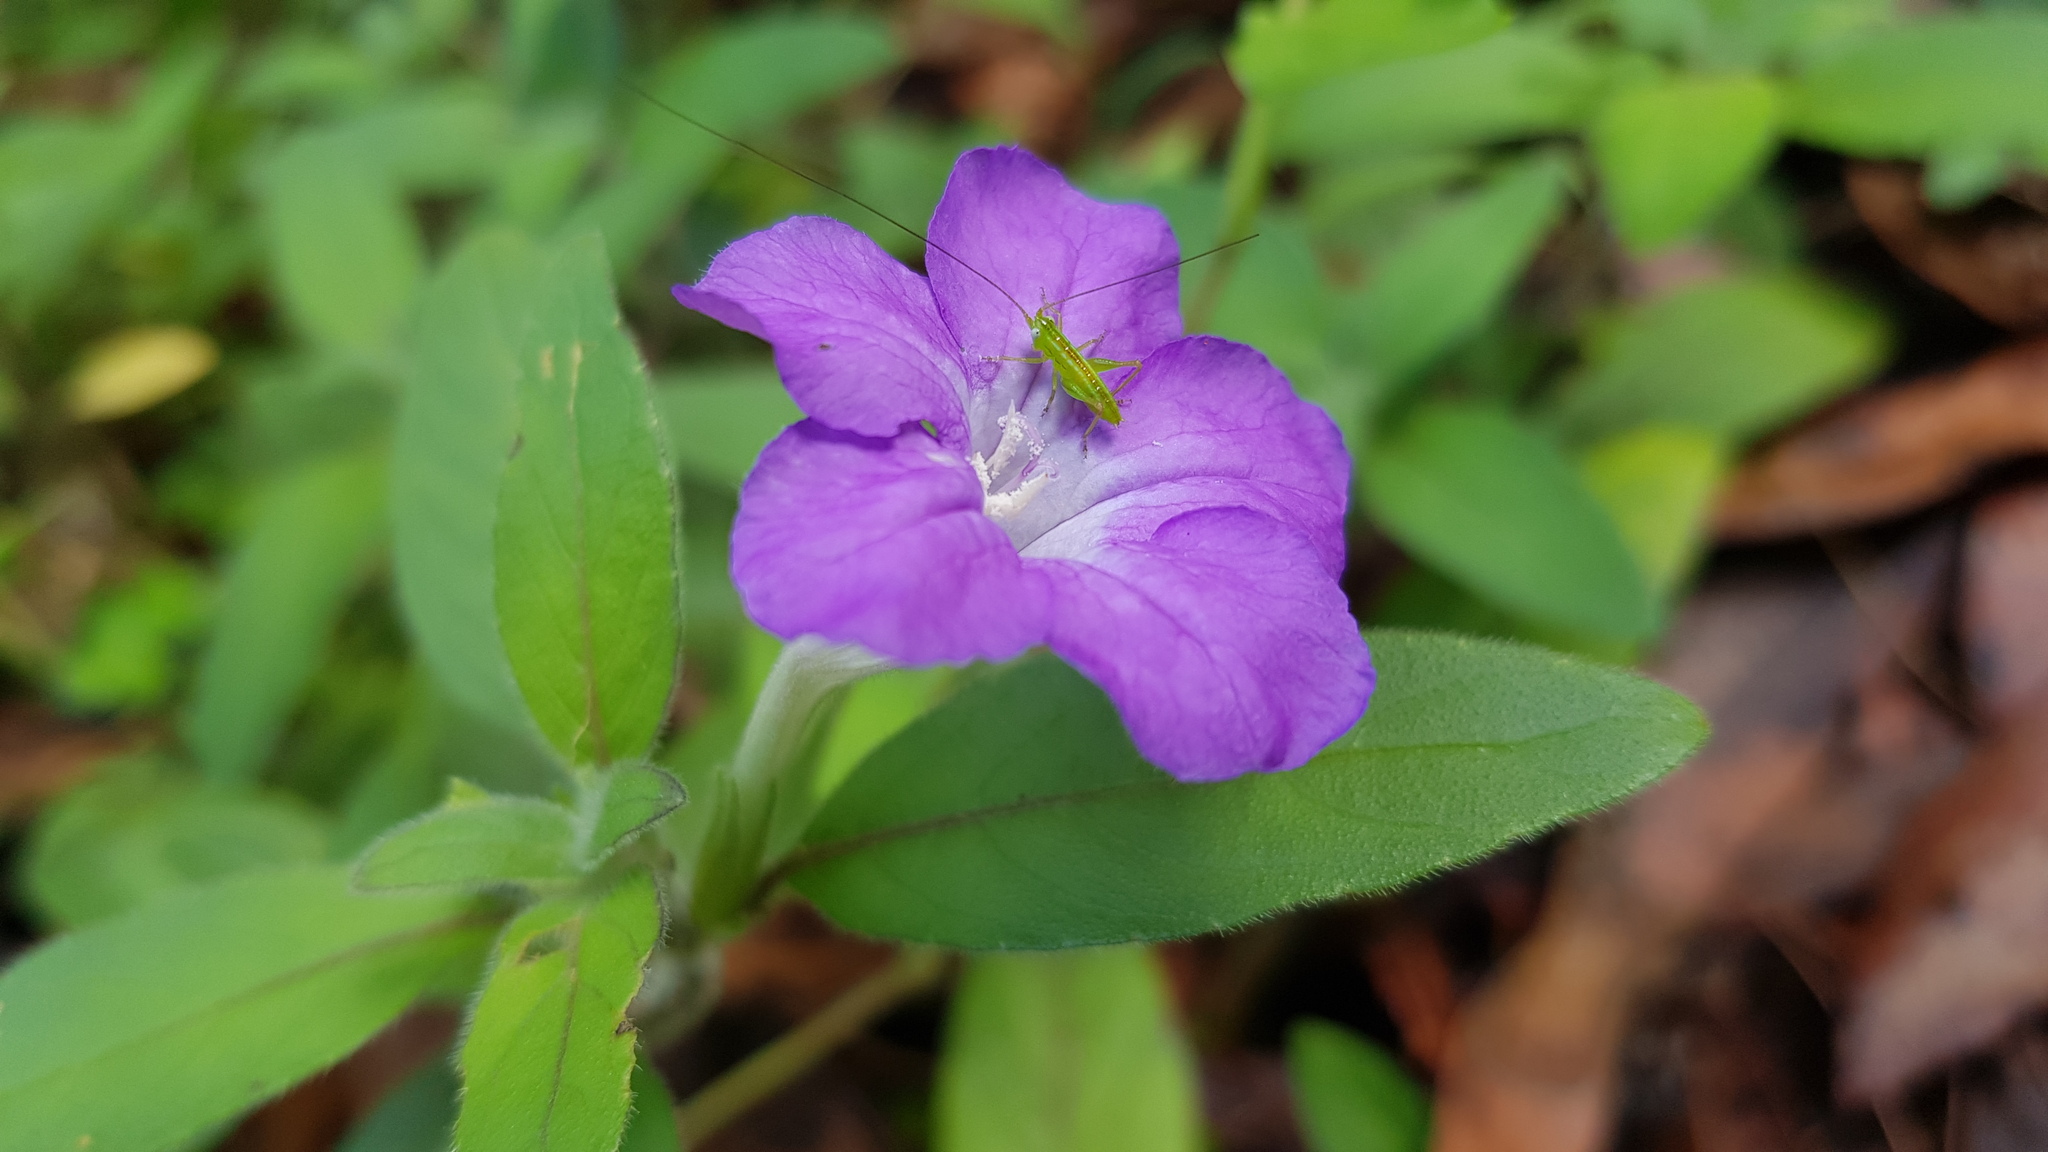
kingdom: Plantae
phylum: Tracheophyta
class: Magnoliopsida
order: Lamiales
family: Acanthaceae
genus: Ruellia
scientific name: Ruellia squarrosa
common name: Water bluebell
